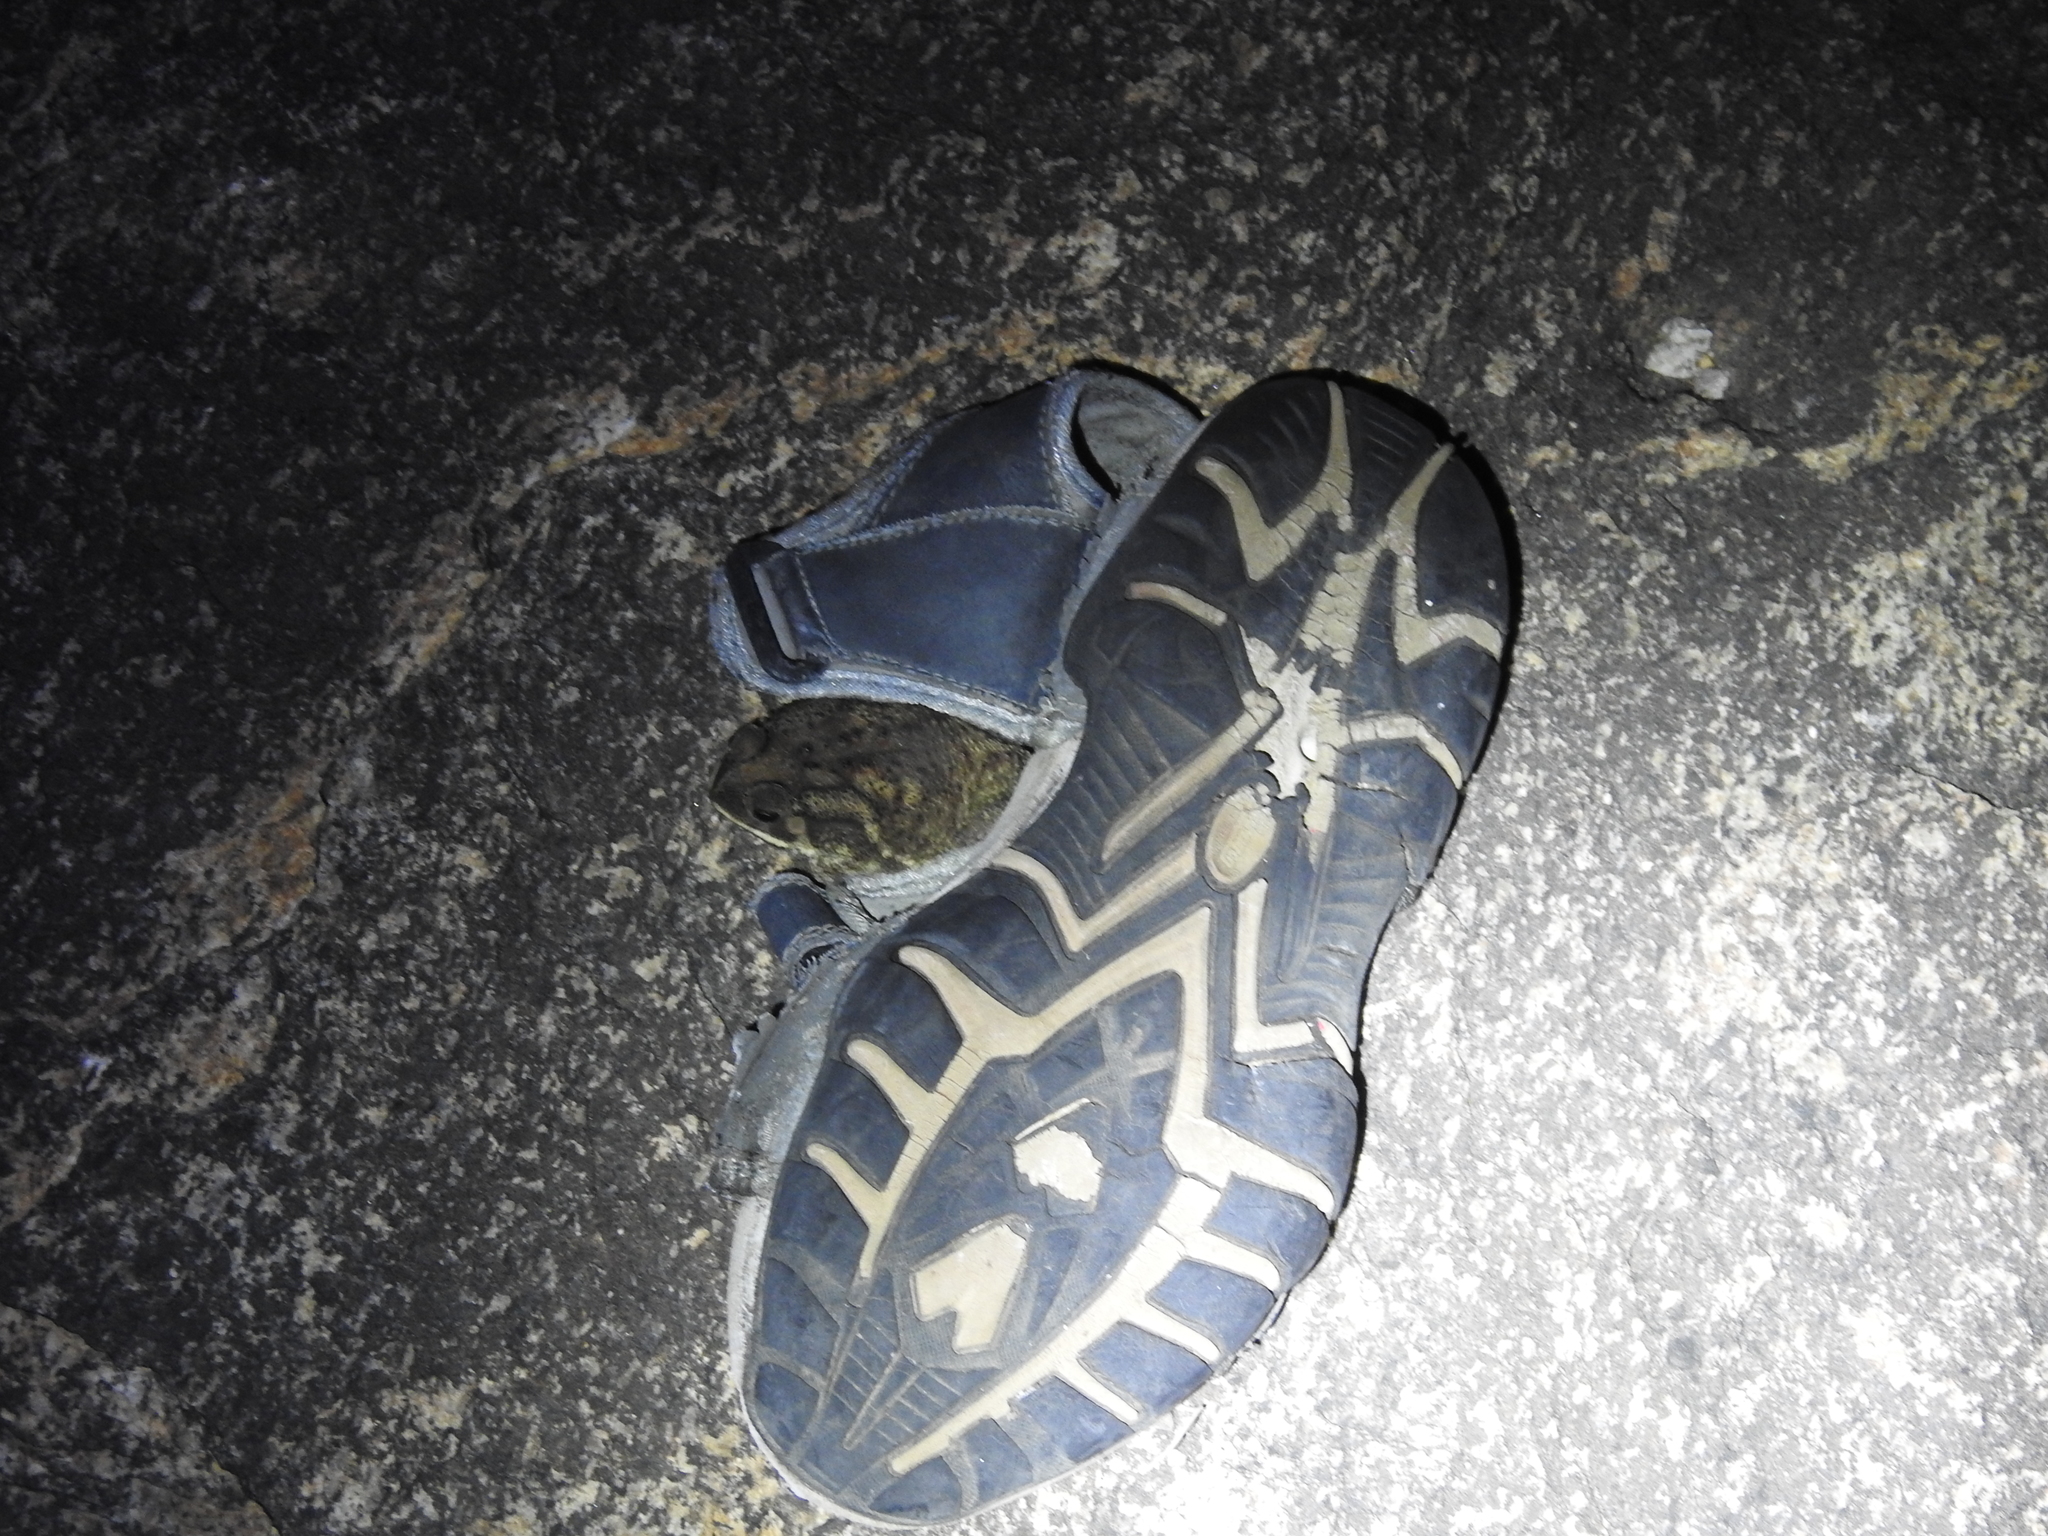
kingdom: Animalia
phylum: Chordata
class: Amphibia
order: Anura
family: Bufonidae
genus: Duttaphrynus
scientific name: Duttaphrynus melanostictus
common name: Common sunda toad
